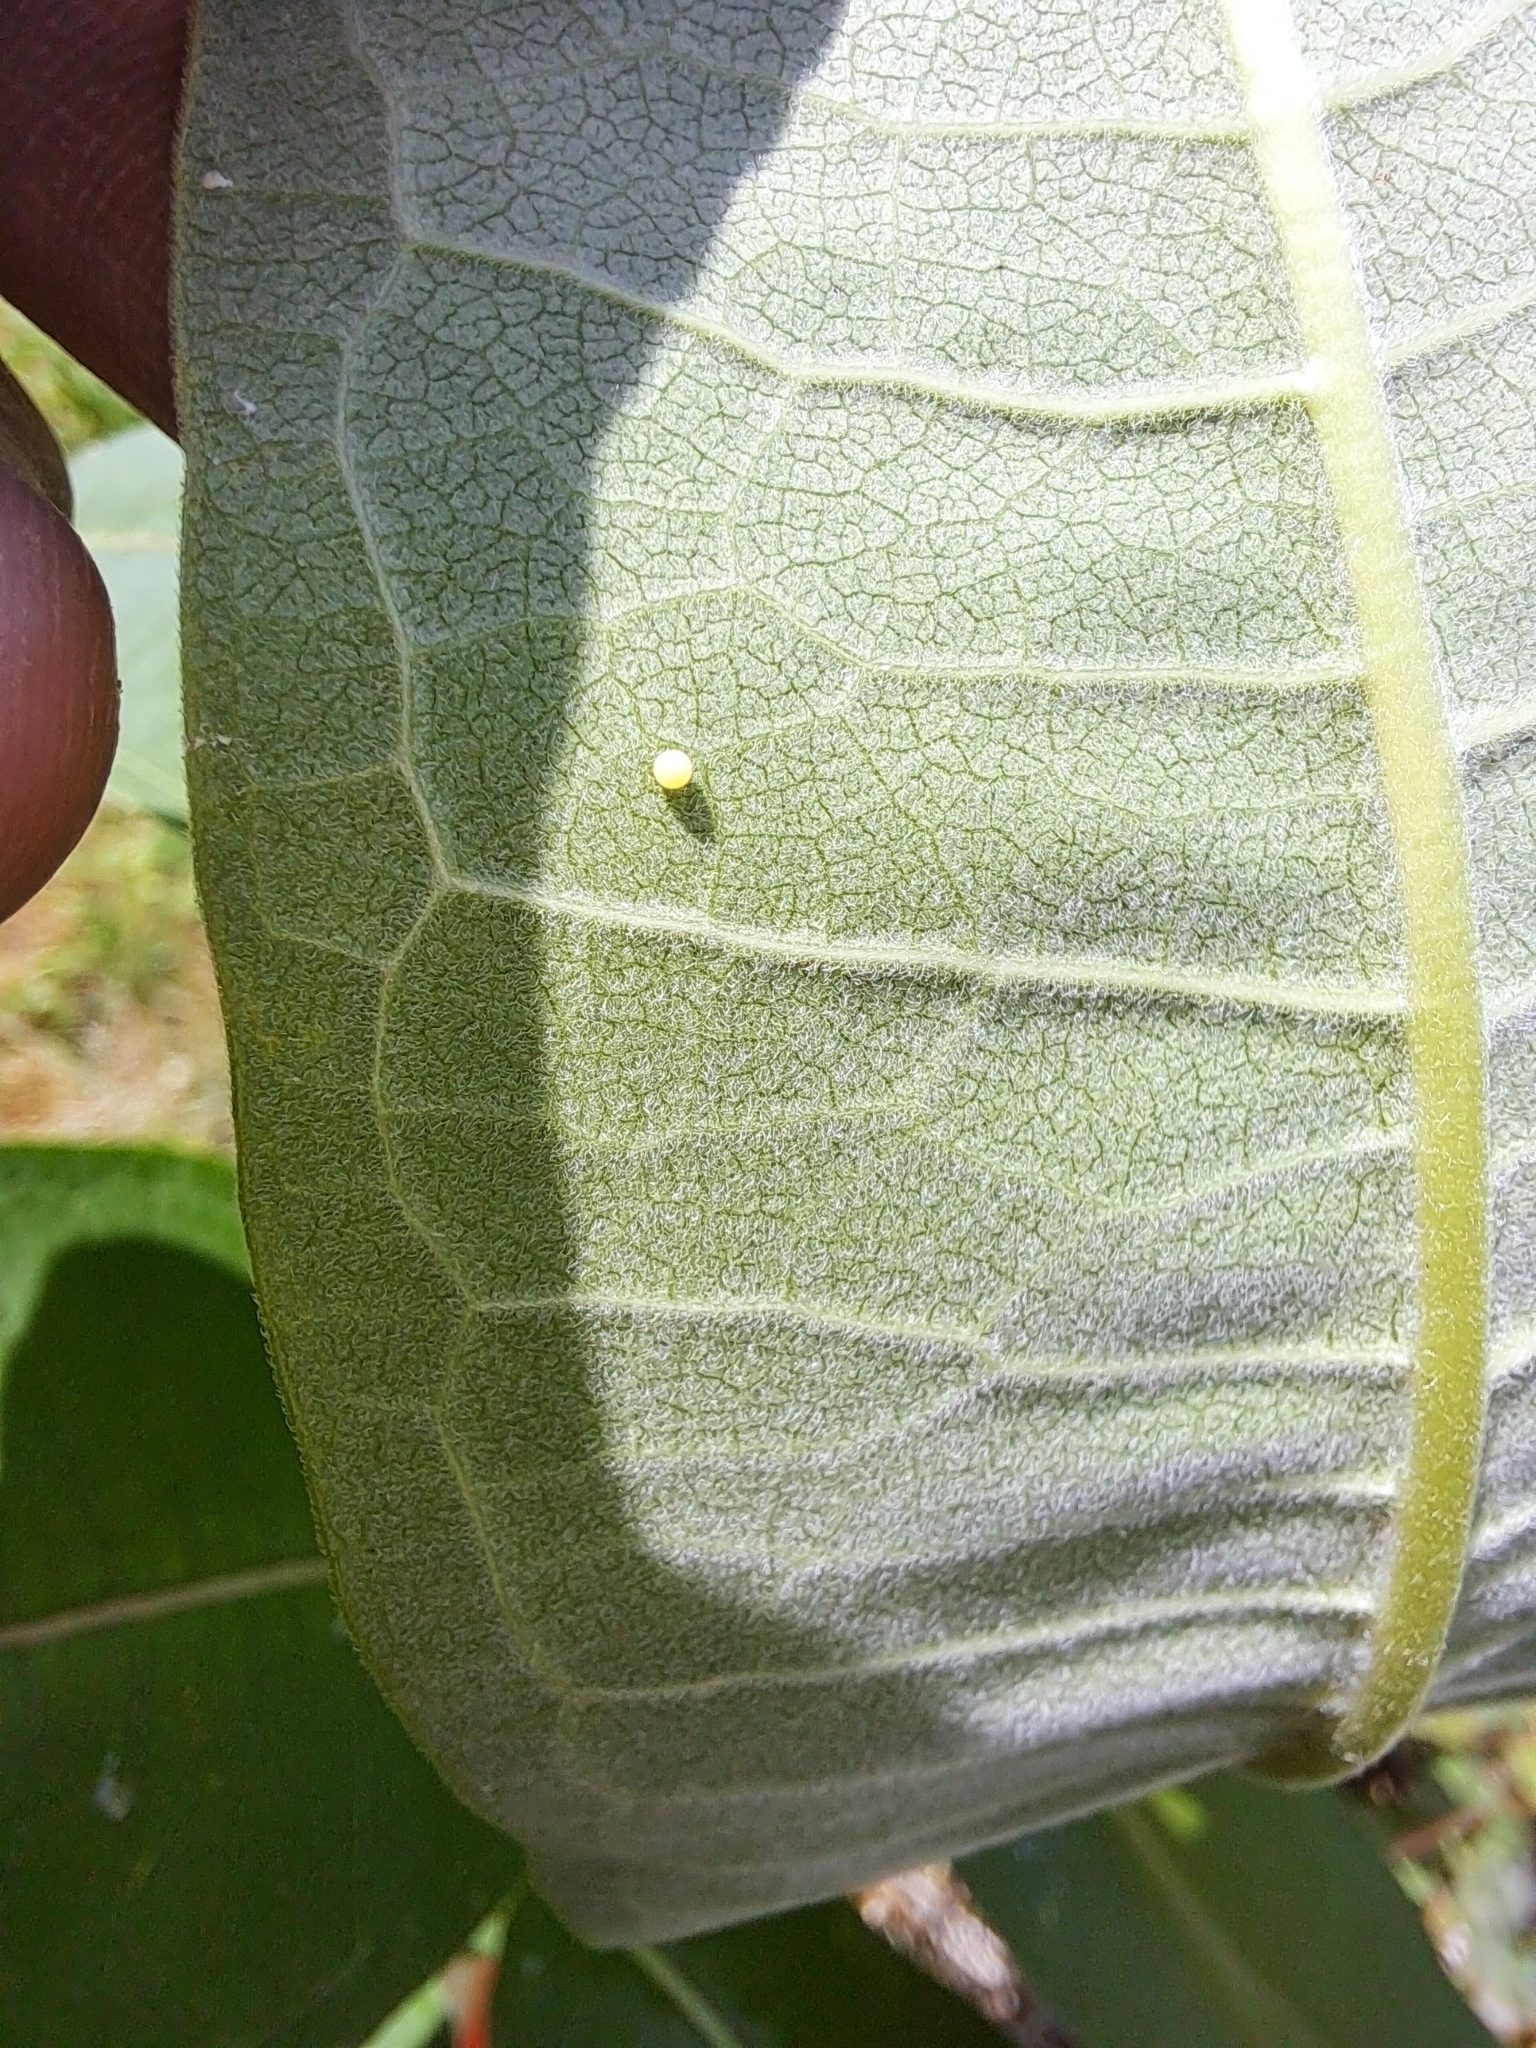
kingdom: Animalia
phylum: Arthropoda
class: Insecta
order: Lepidoptera
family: Nymphalidae
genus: Danaus
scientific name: Danaus plexippus
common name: Monarch
